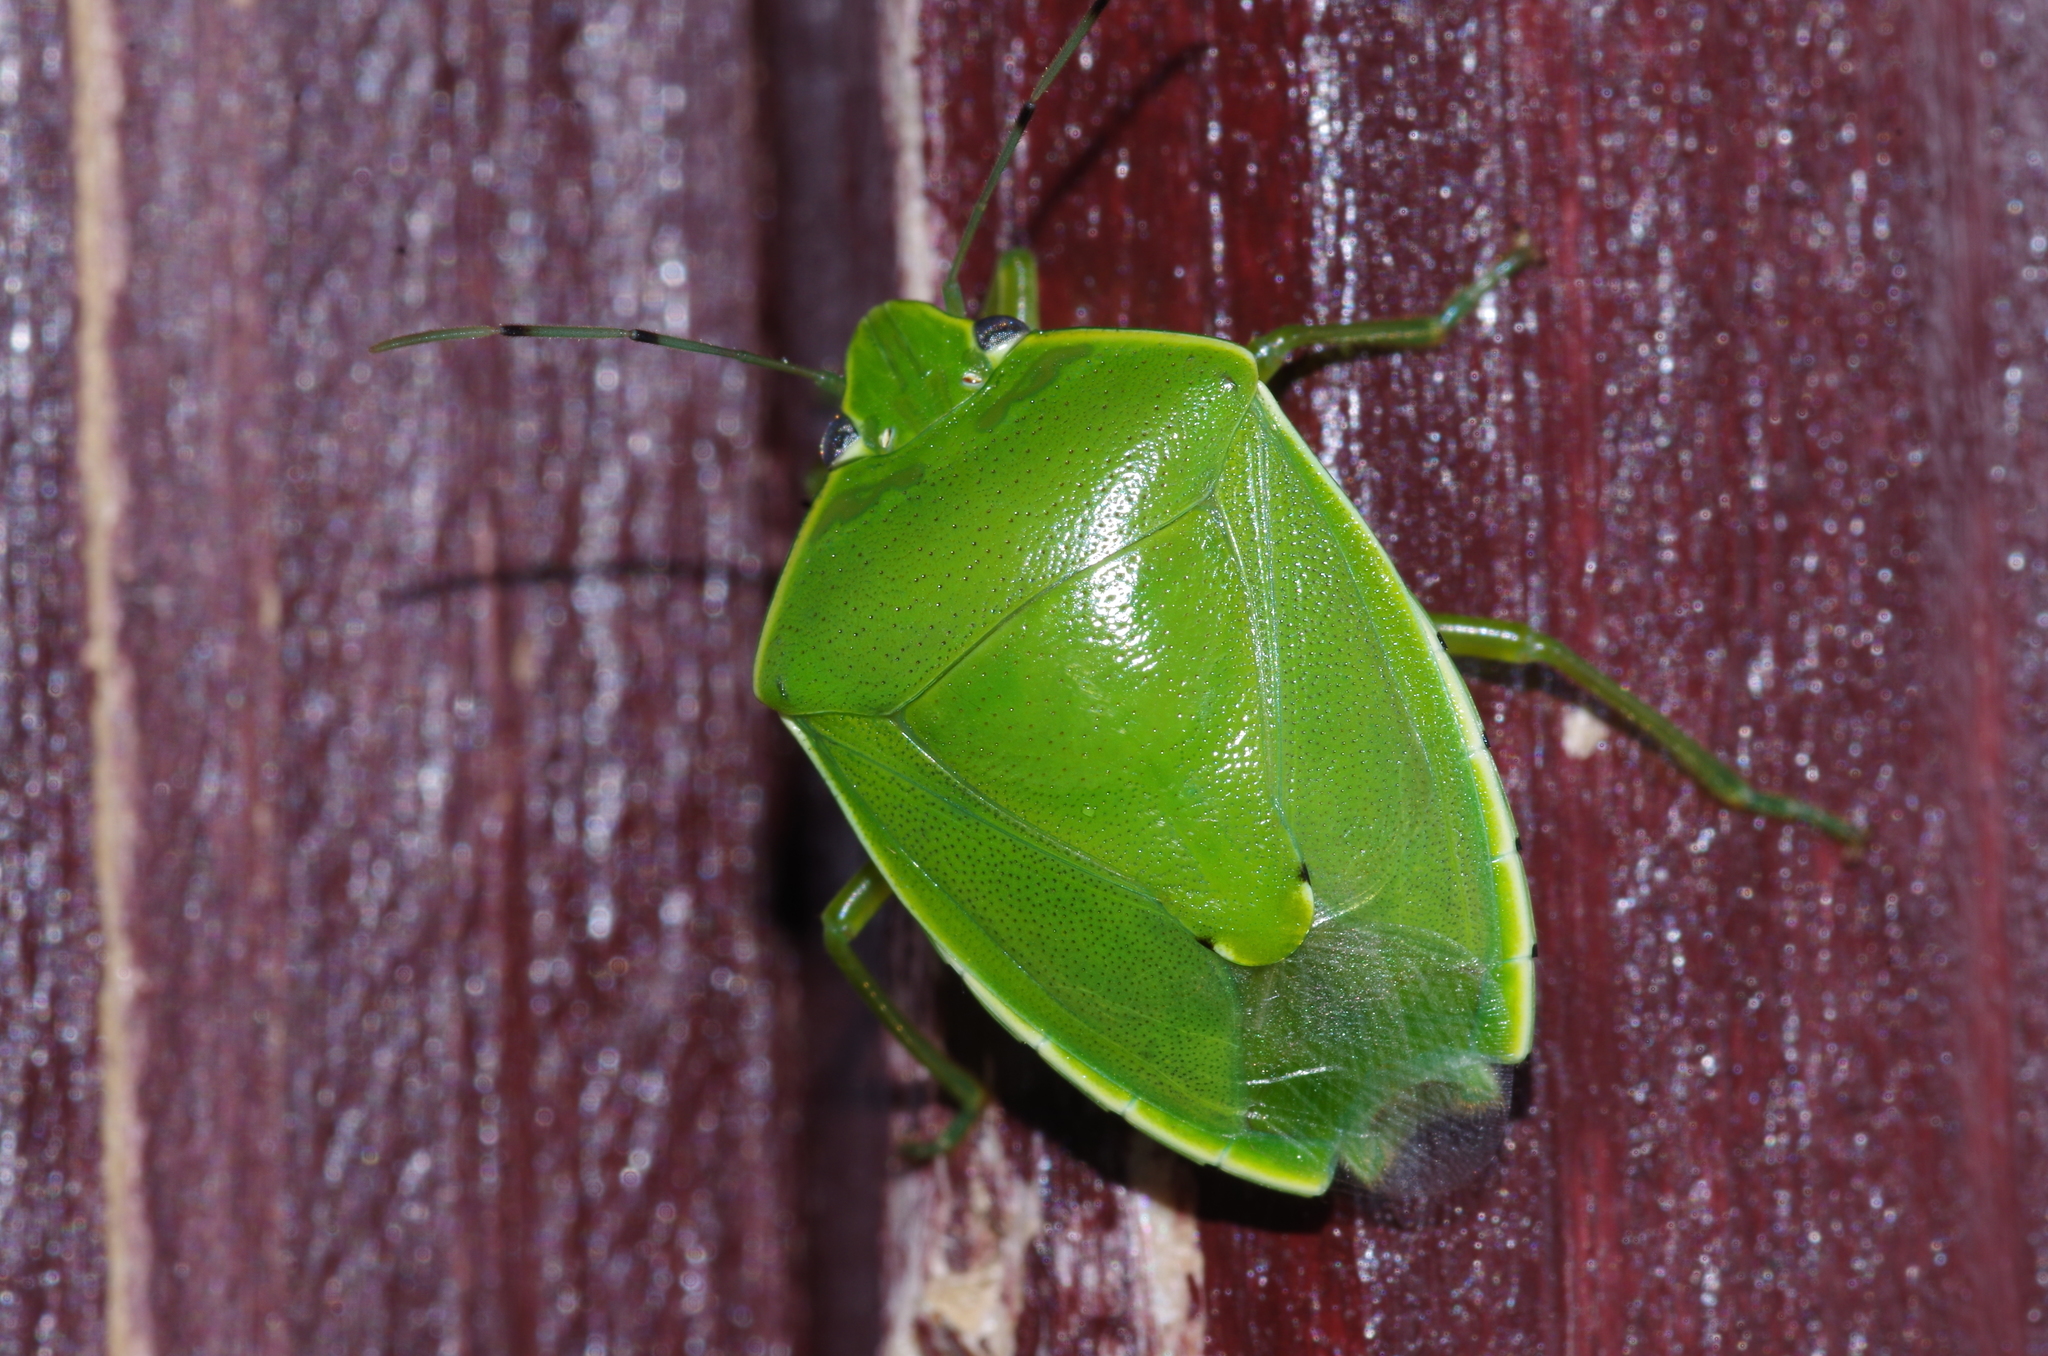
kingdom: Animalia
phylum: Arthropoda
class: Insecta
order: Hemiptera
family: Pentatomidae
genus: Glaucias
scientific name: Glaucias subpunctatus
